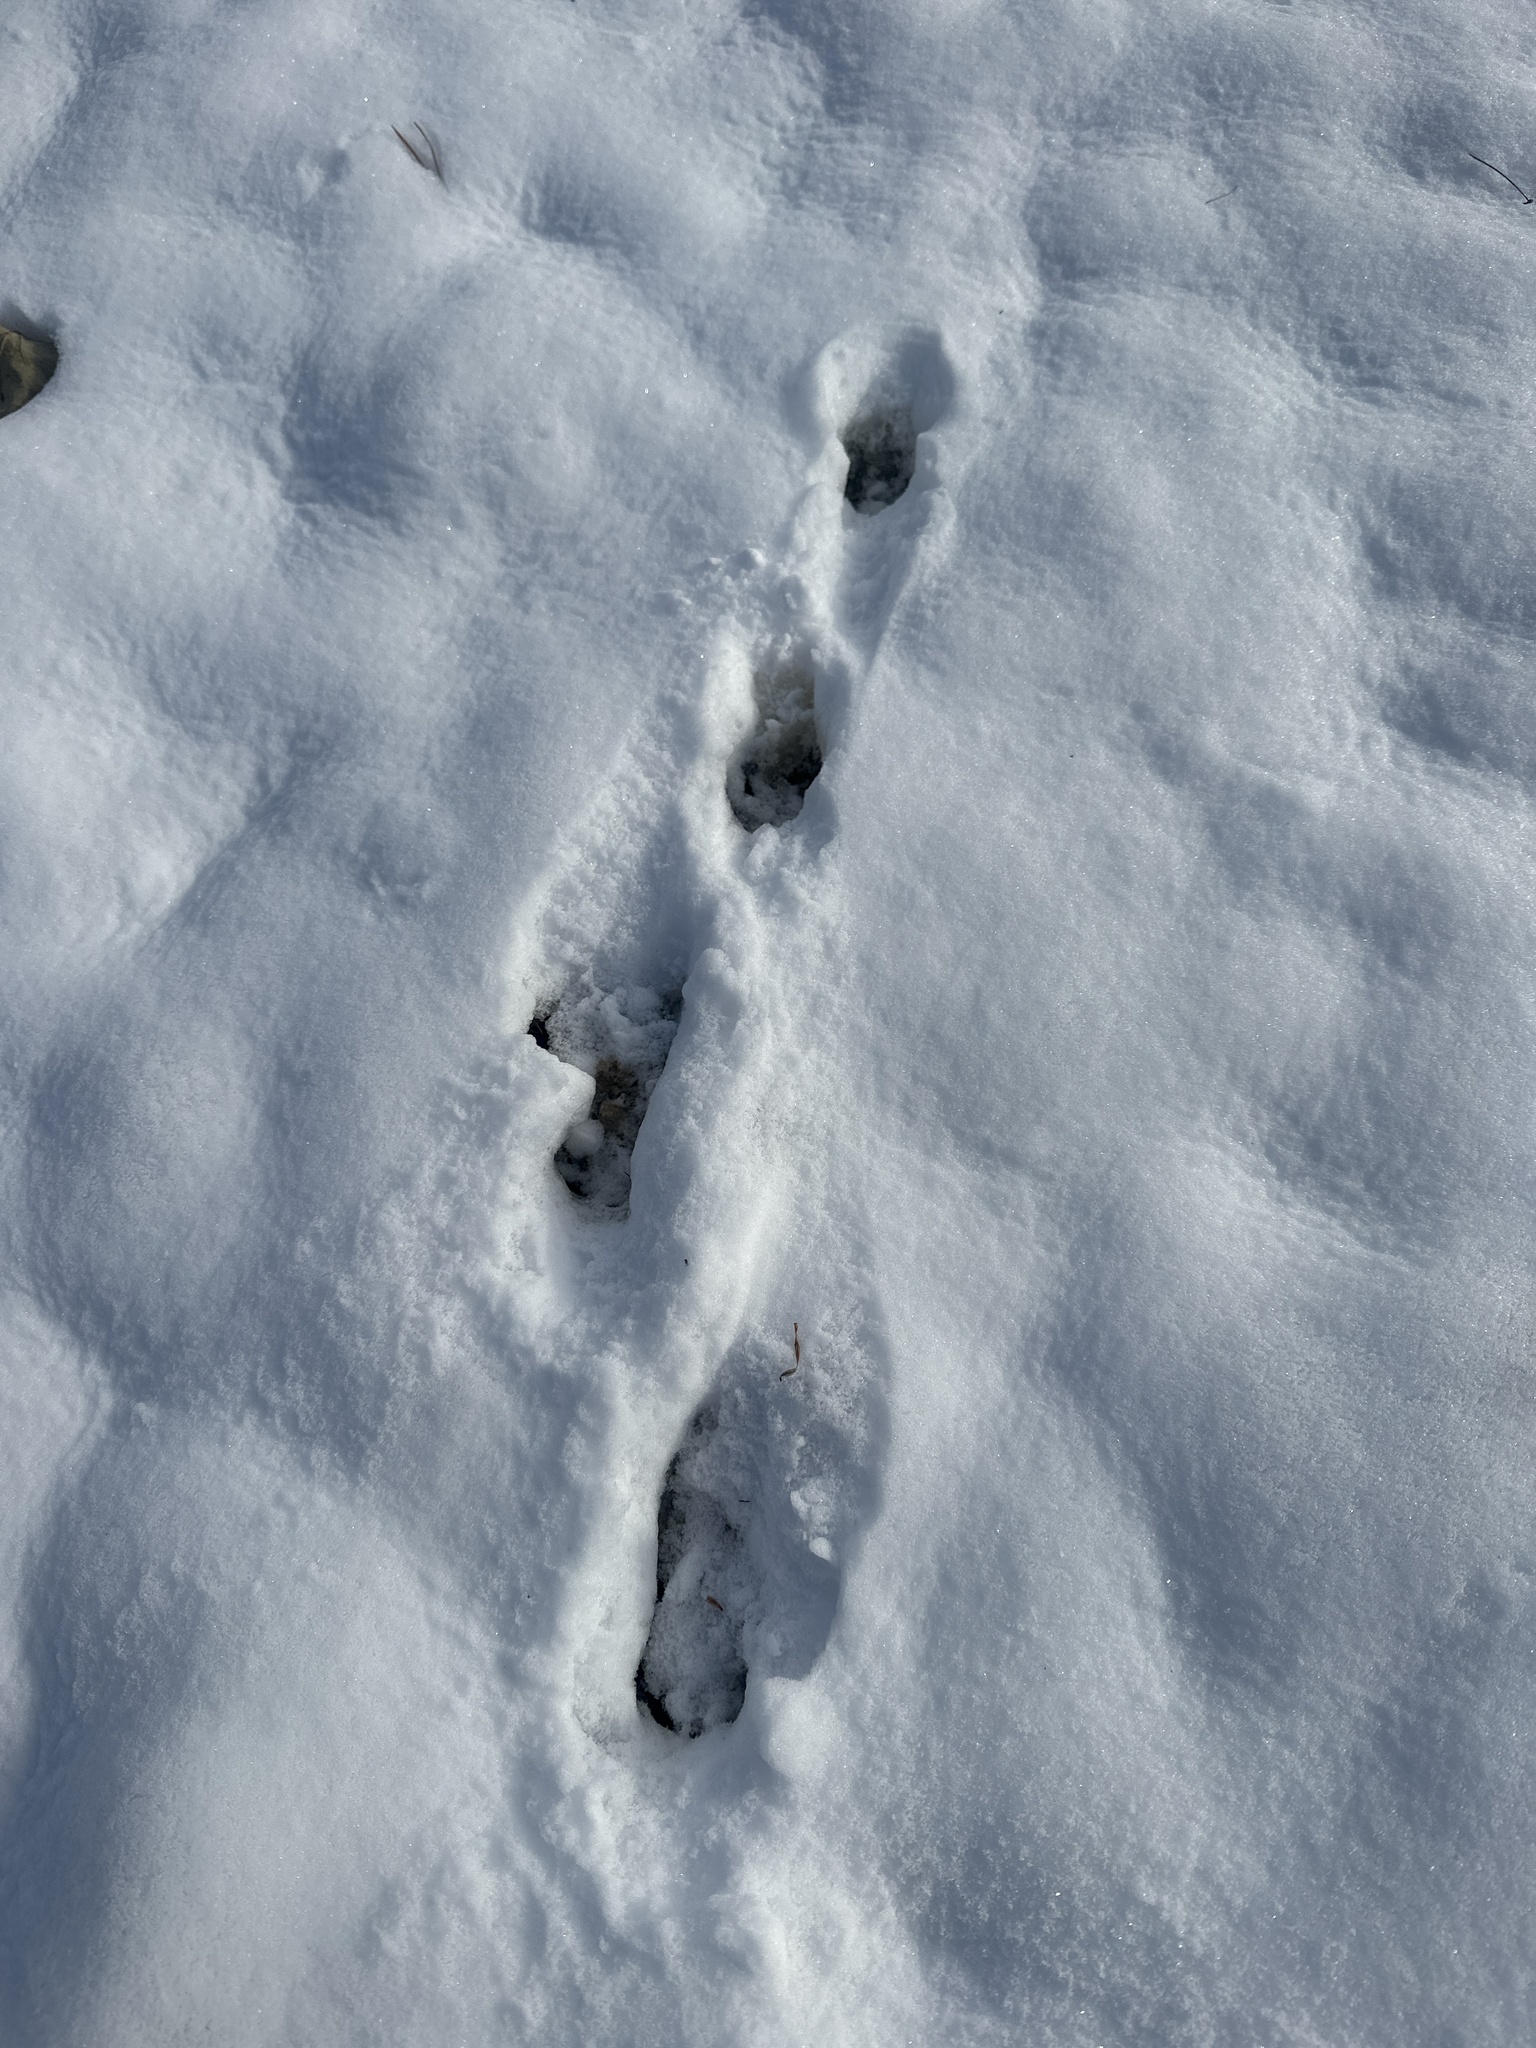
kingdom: Animalia
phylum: Chordata
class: Mammalia
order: Lagomorpha
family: Leporidae
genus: Lepus
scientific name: Lepus europaeus
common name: European hare
